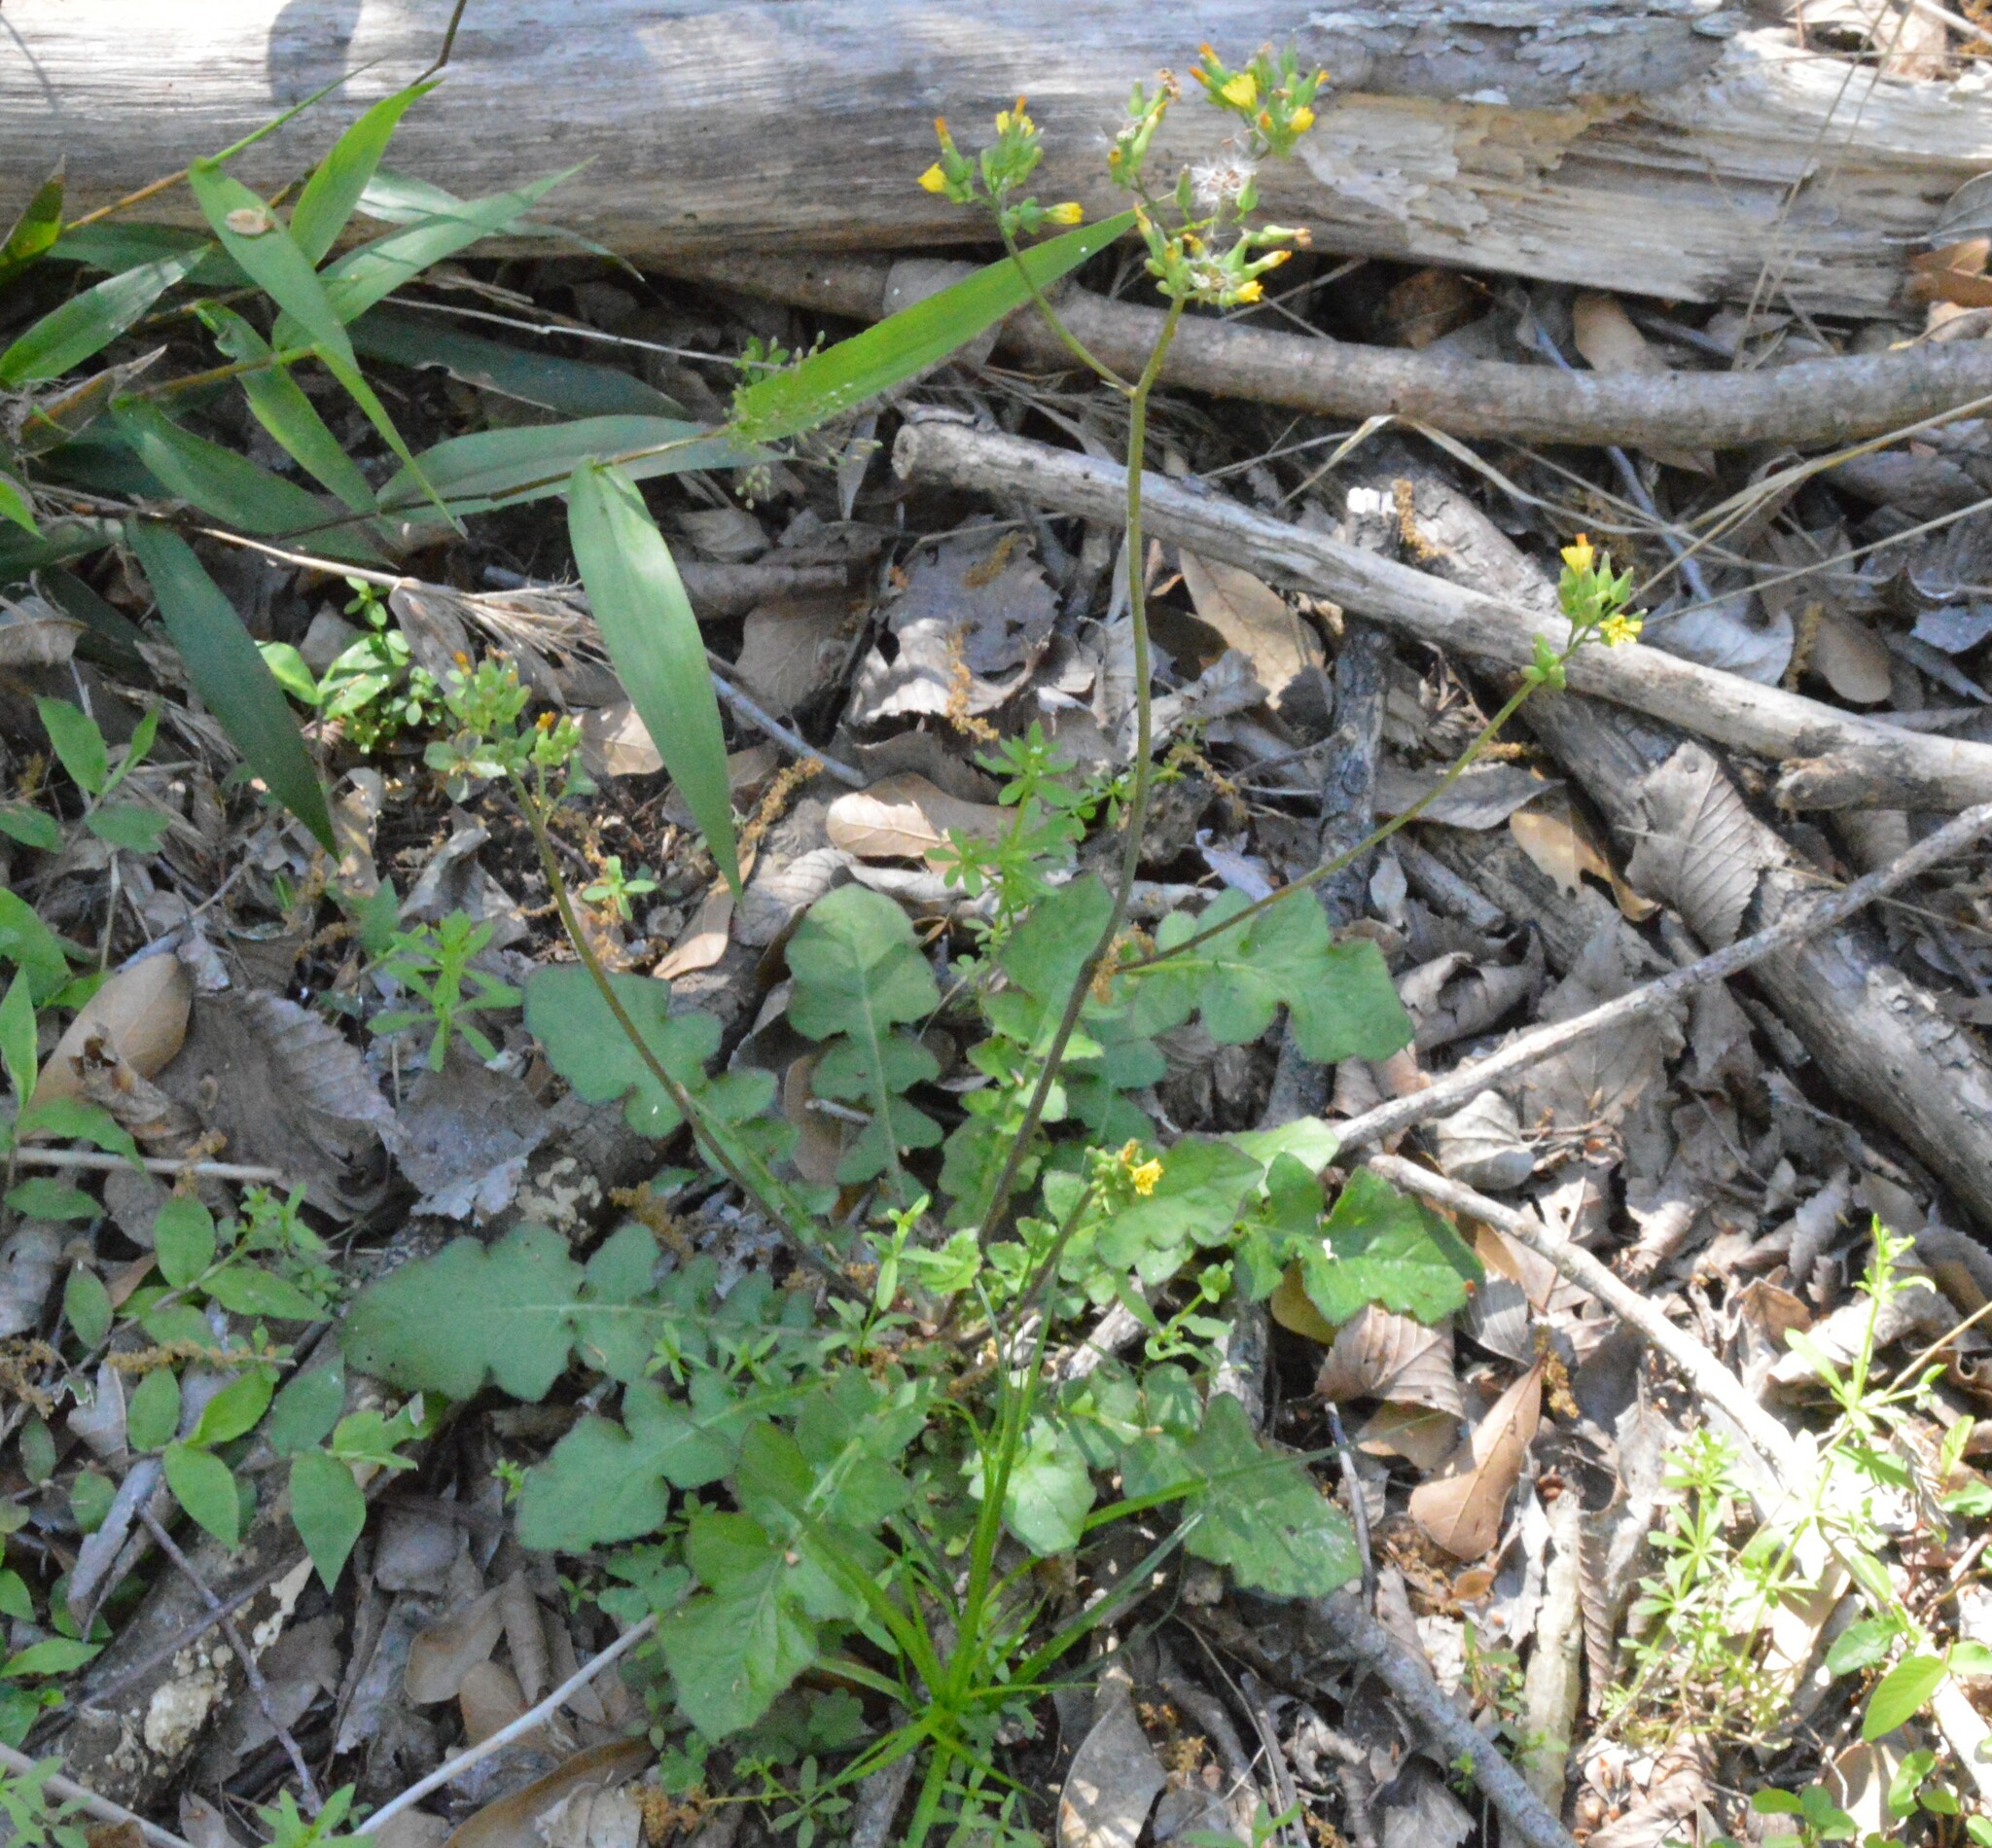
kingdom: Plantae
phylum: Tracheophyta
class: Magnoliopsida
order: Asterales
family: Asteraceae
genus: Youngia
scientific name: Youngia japonica
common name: Oriental false hawksbeard
